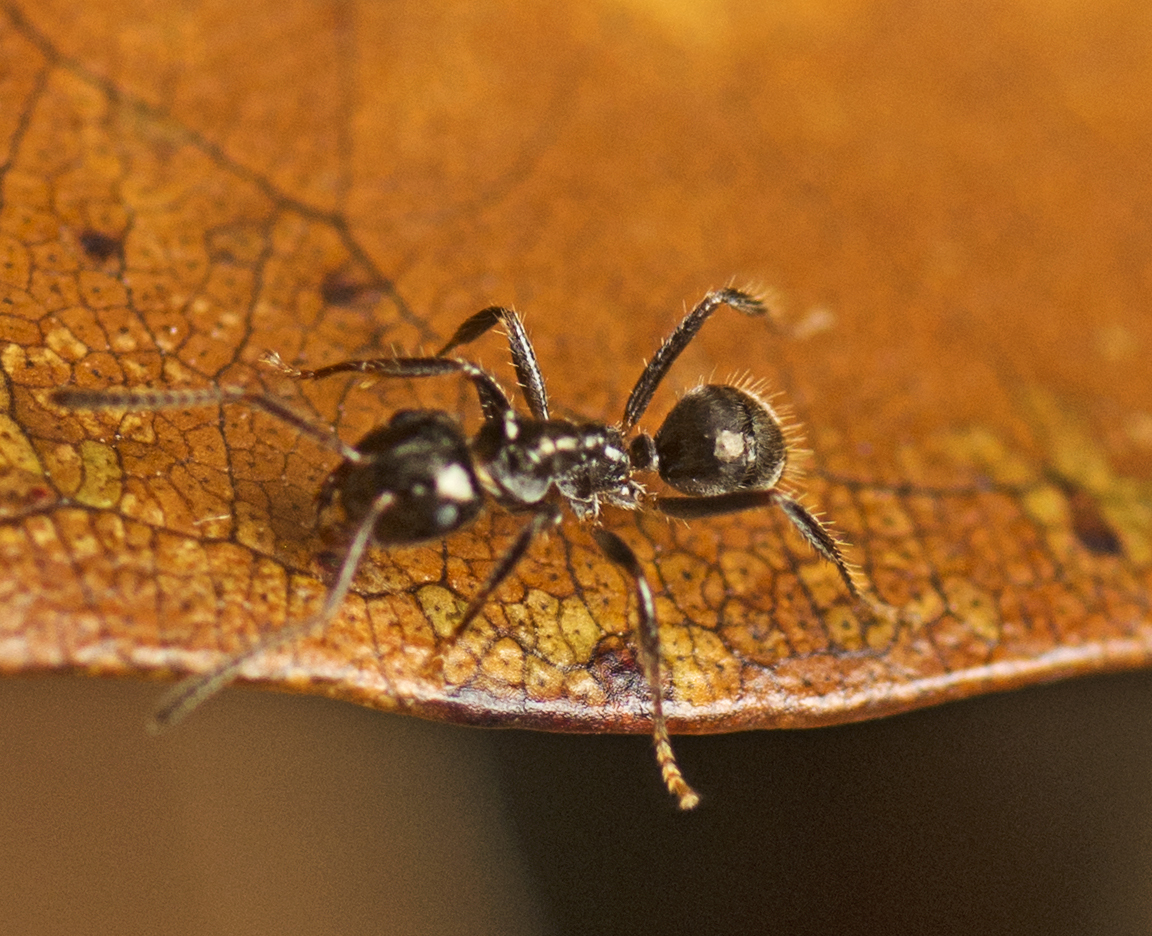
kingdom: Animalia
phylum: Arthropoda
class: Insecta
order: Hymenoptera
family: Formicidae
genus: Notoncus
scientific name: Notoncus capitatus
